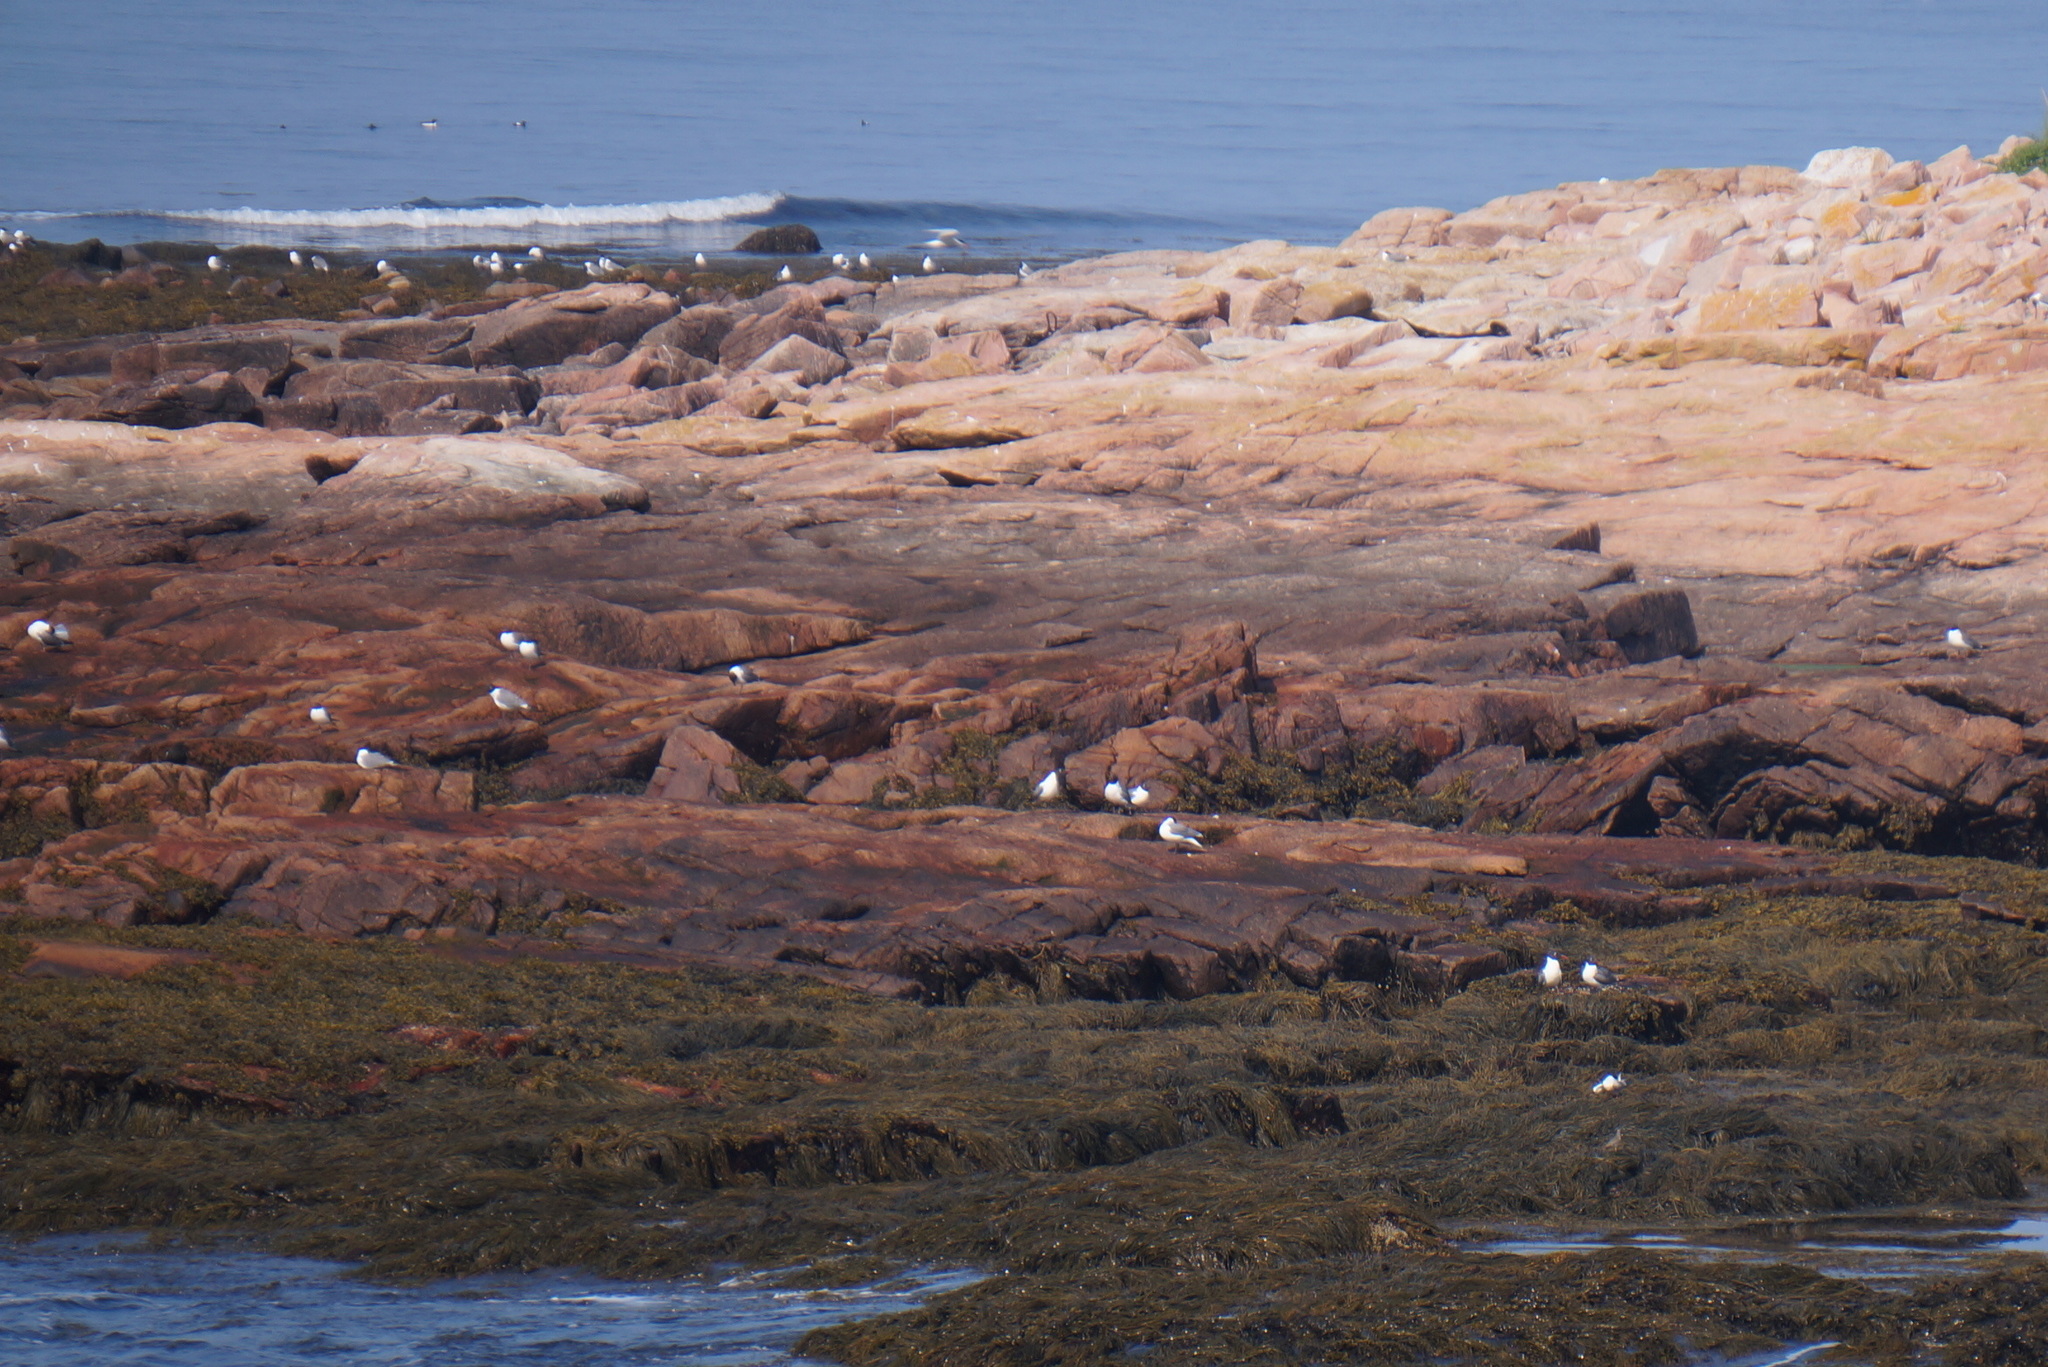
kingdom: Animalia
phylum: Chordata
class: Aves
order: Charadriiformes
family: Laridae
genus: Leucophaeus
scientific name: Leucophaeus atricilla
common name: Laughing gull
